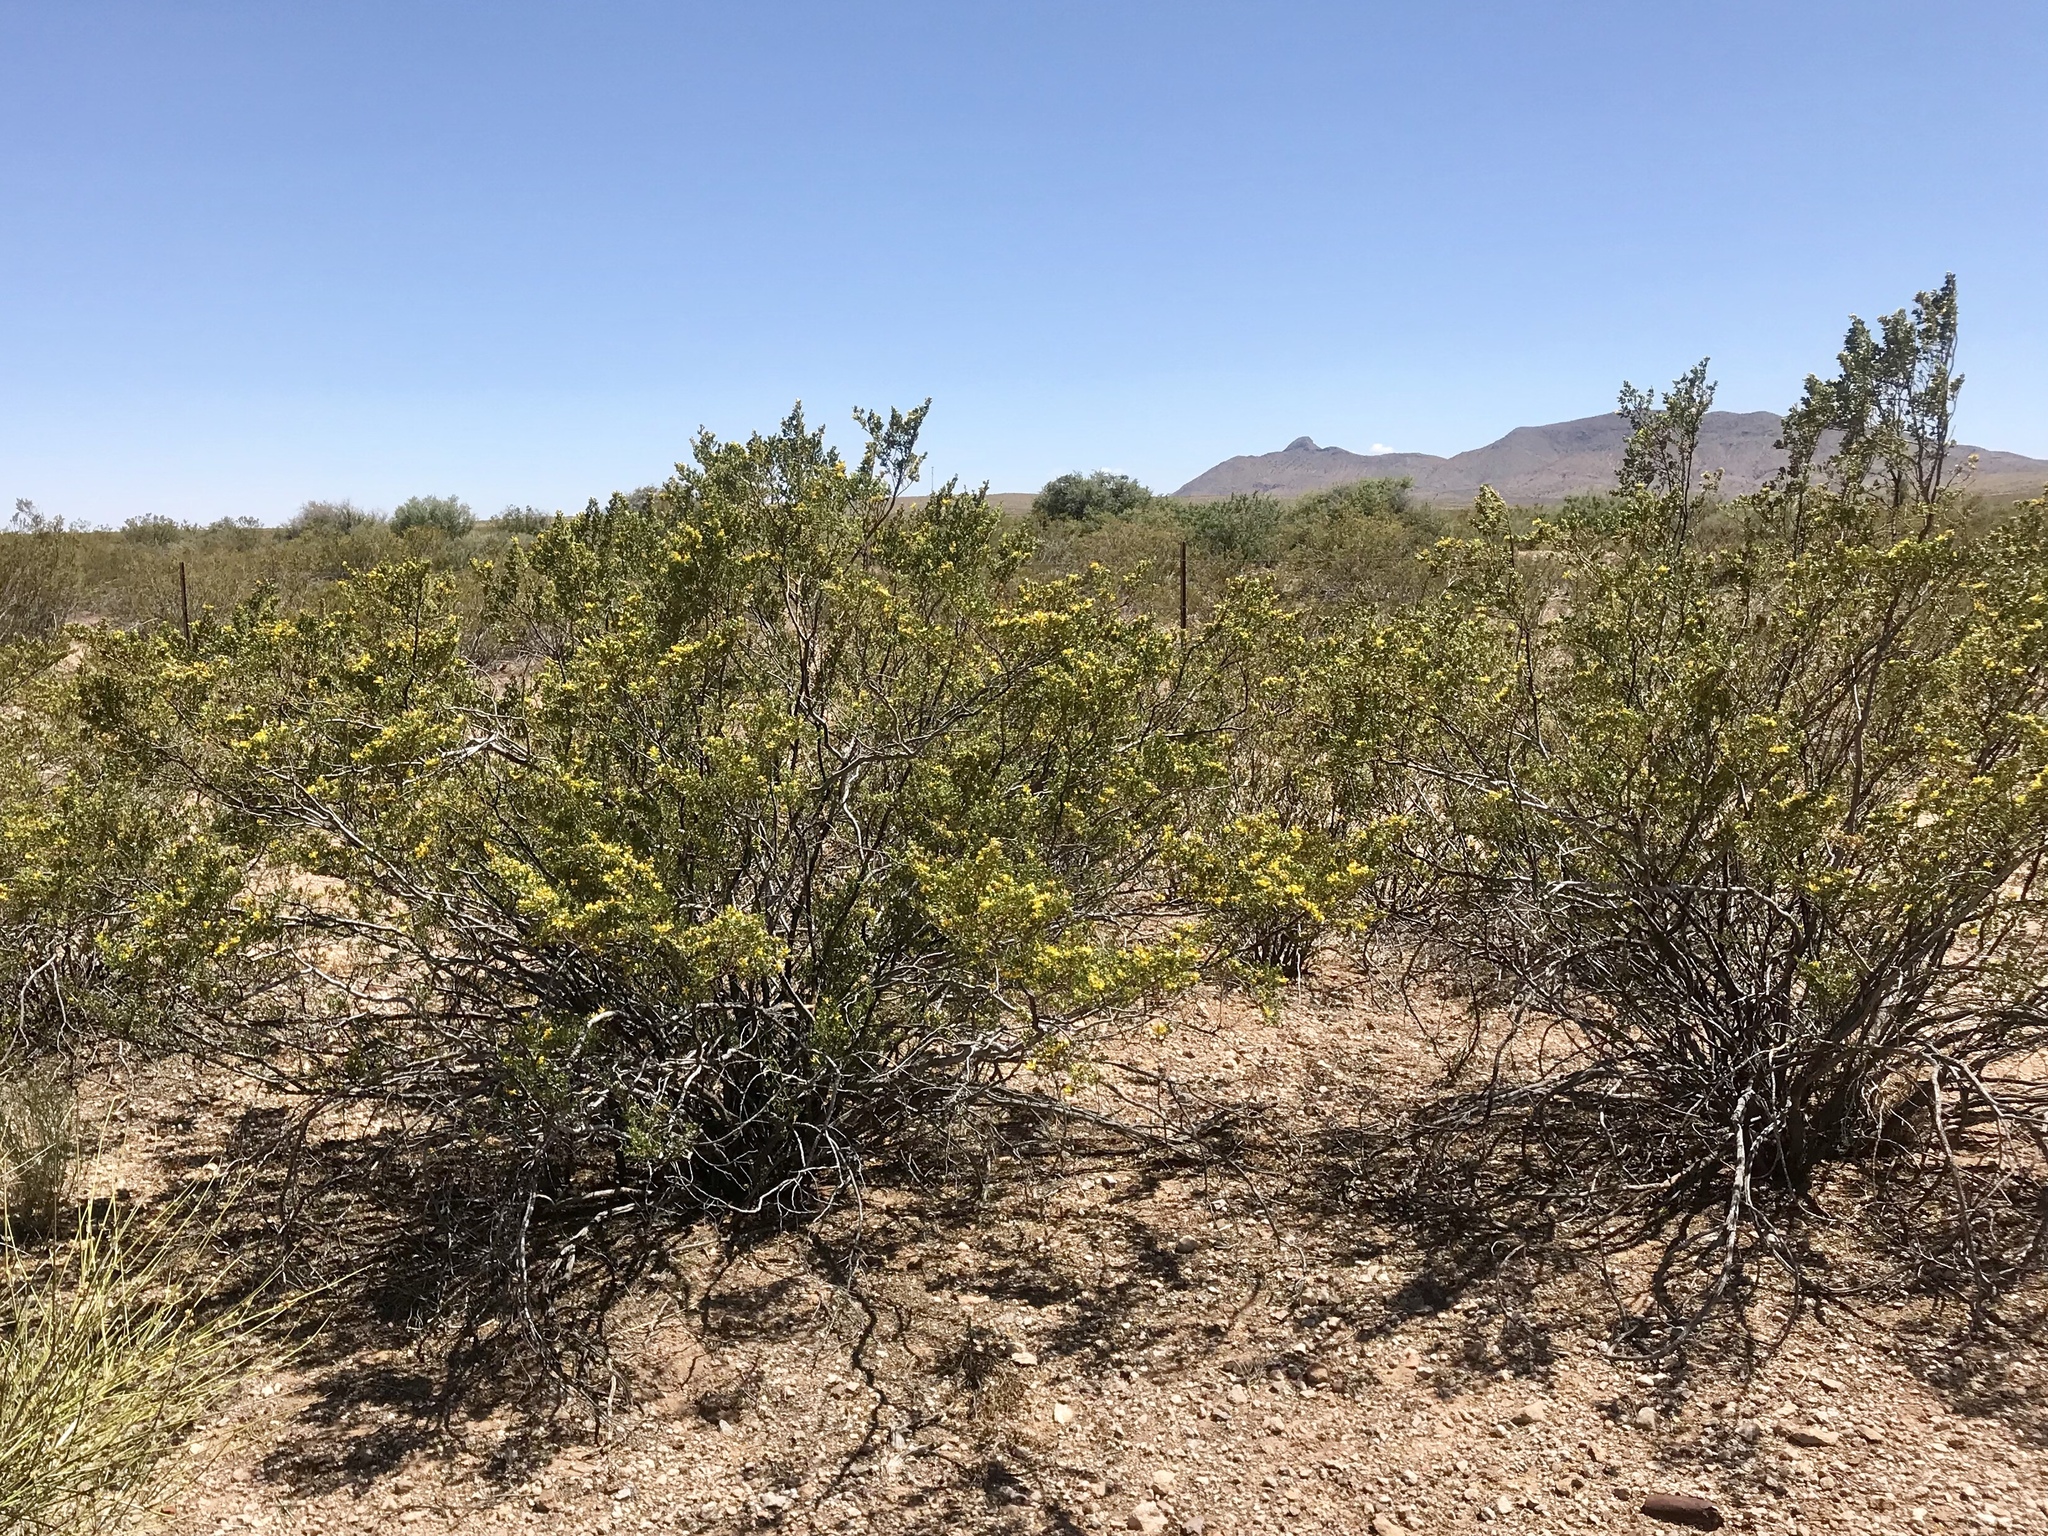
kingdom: Plantae
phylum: Tracheophyta
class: Magnoliopsida
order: Zygophyllales
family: Zygophyllaceae
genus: Larrea
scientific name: Larrea tridentata
